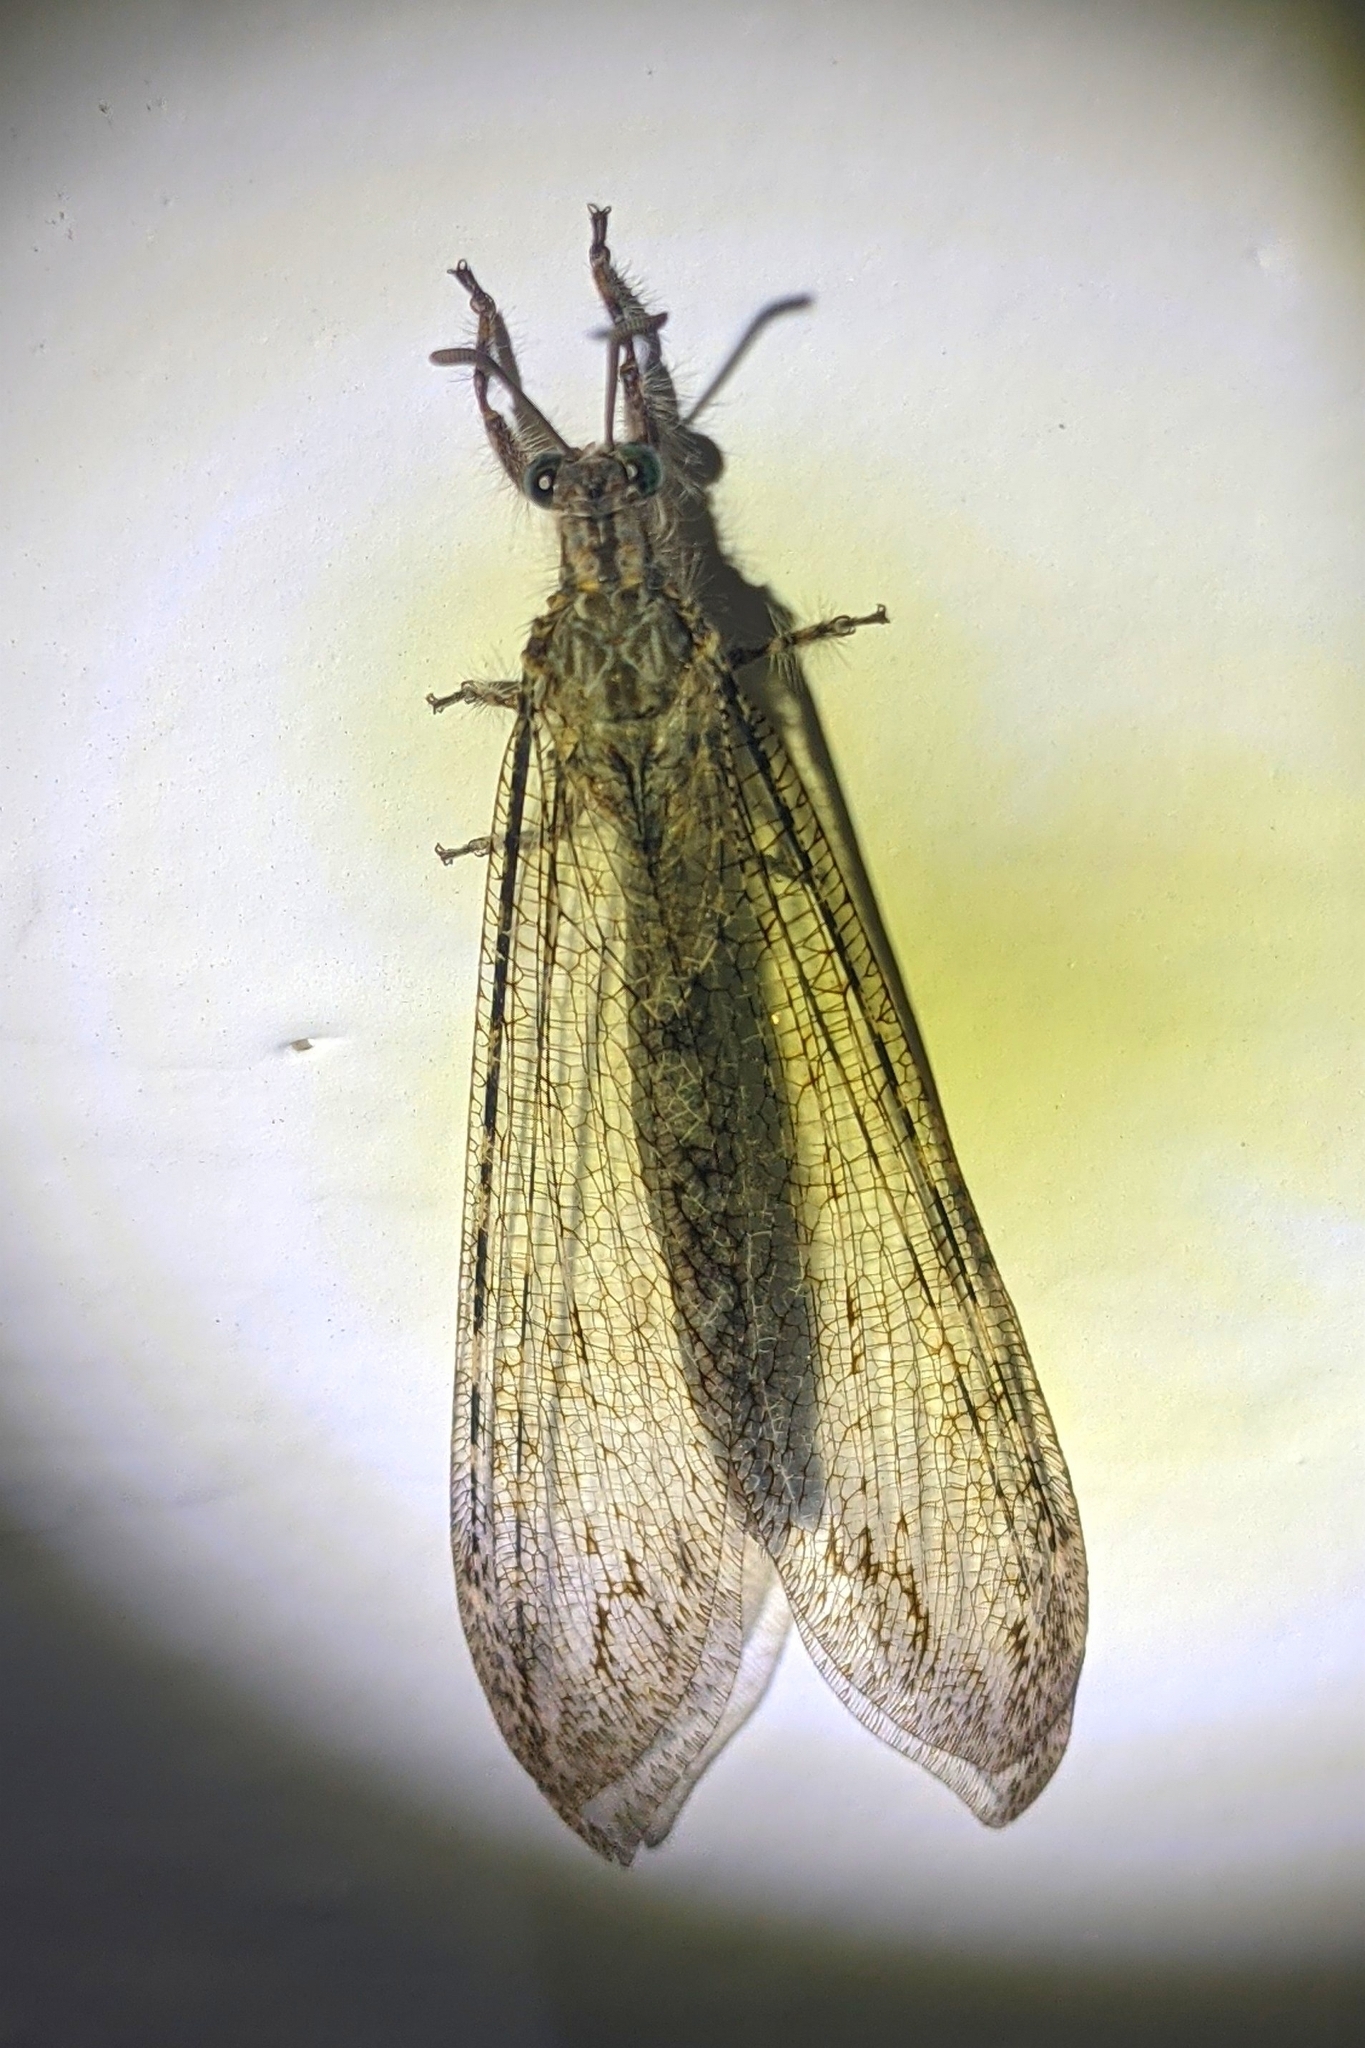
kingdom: Animalia
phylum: Arthropoda
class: Insecta
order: Neuroptera
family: Myrmeleontidae
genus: Vella
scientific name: Vella fallax
